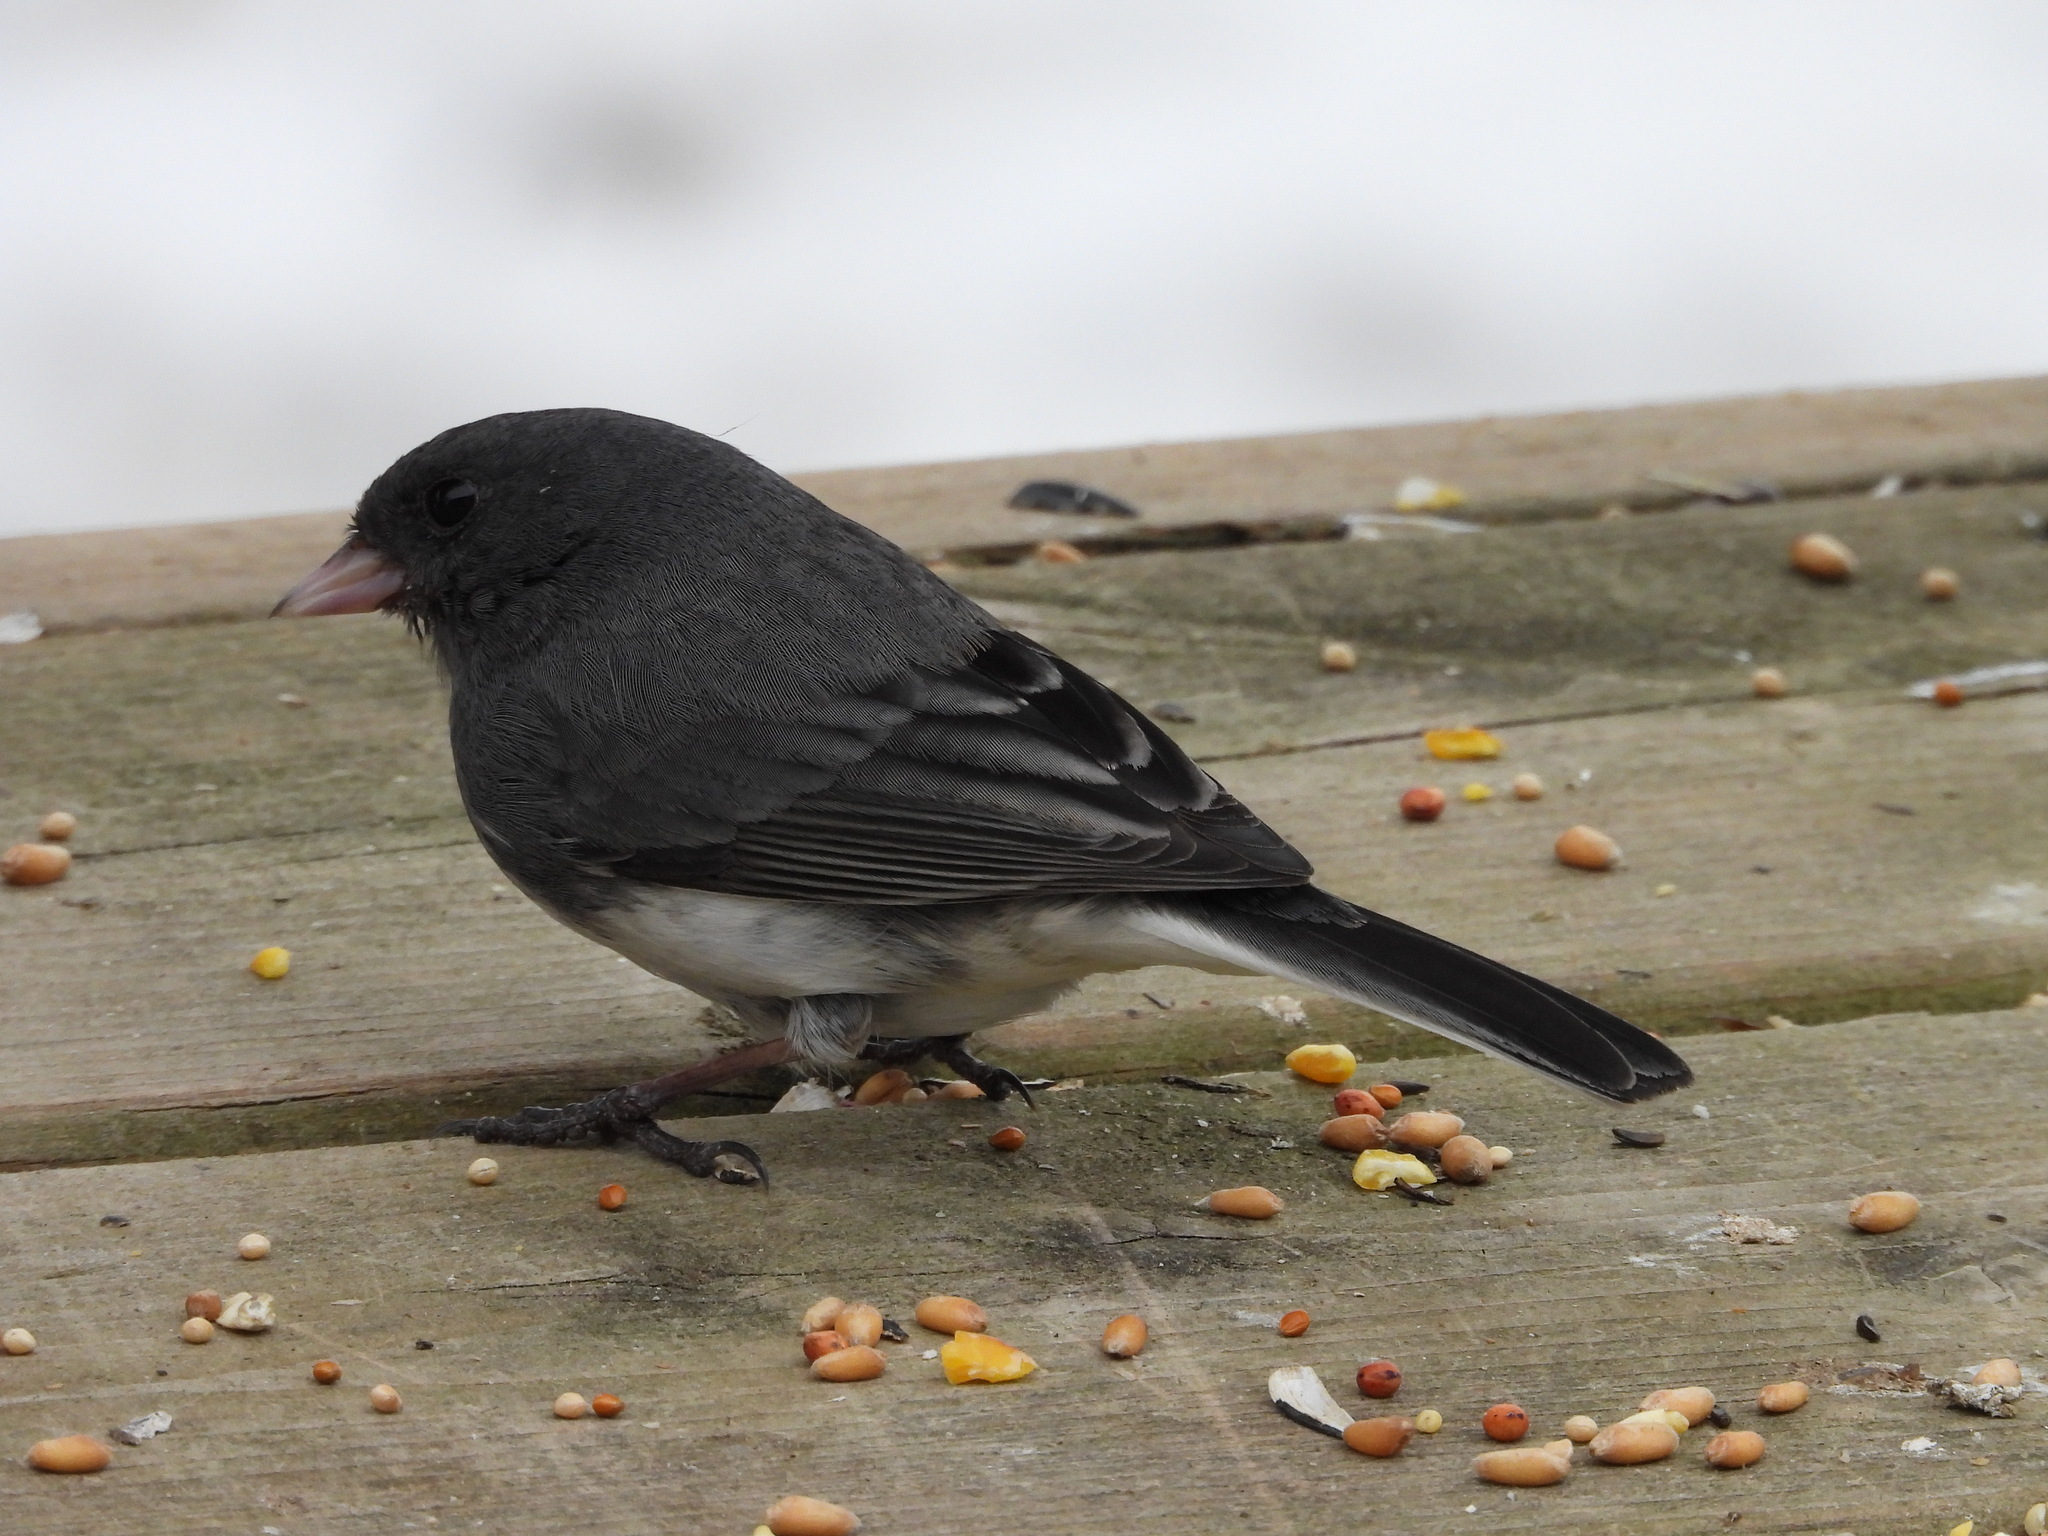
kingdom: Animalia
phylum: Chordata
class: Aves
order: Passeriformes
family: Passerellidae
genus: Junco
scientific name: Junco hyemalis
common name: Dark-eyed junco
